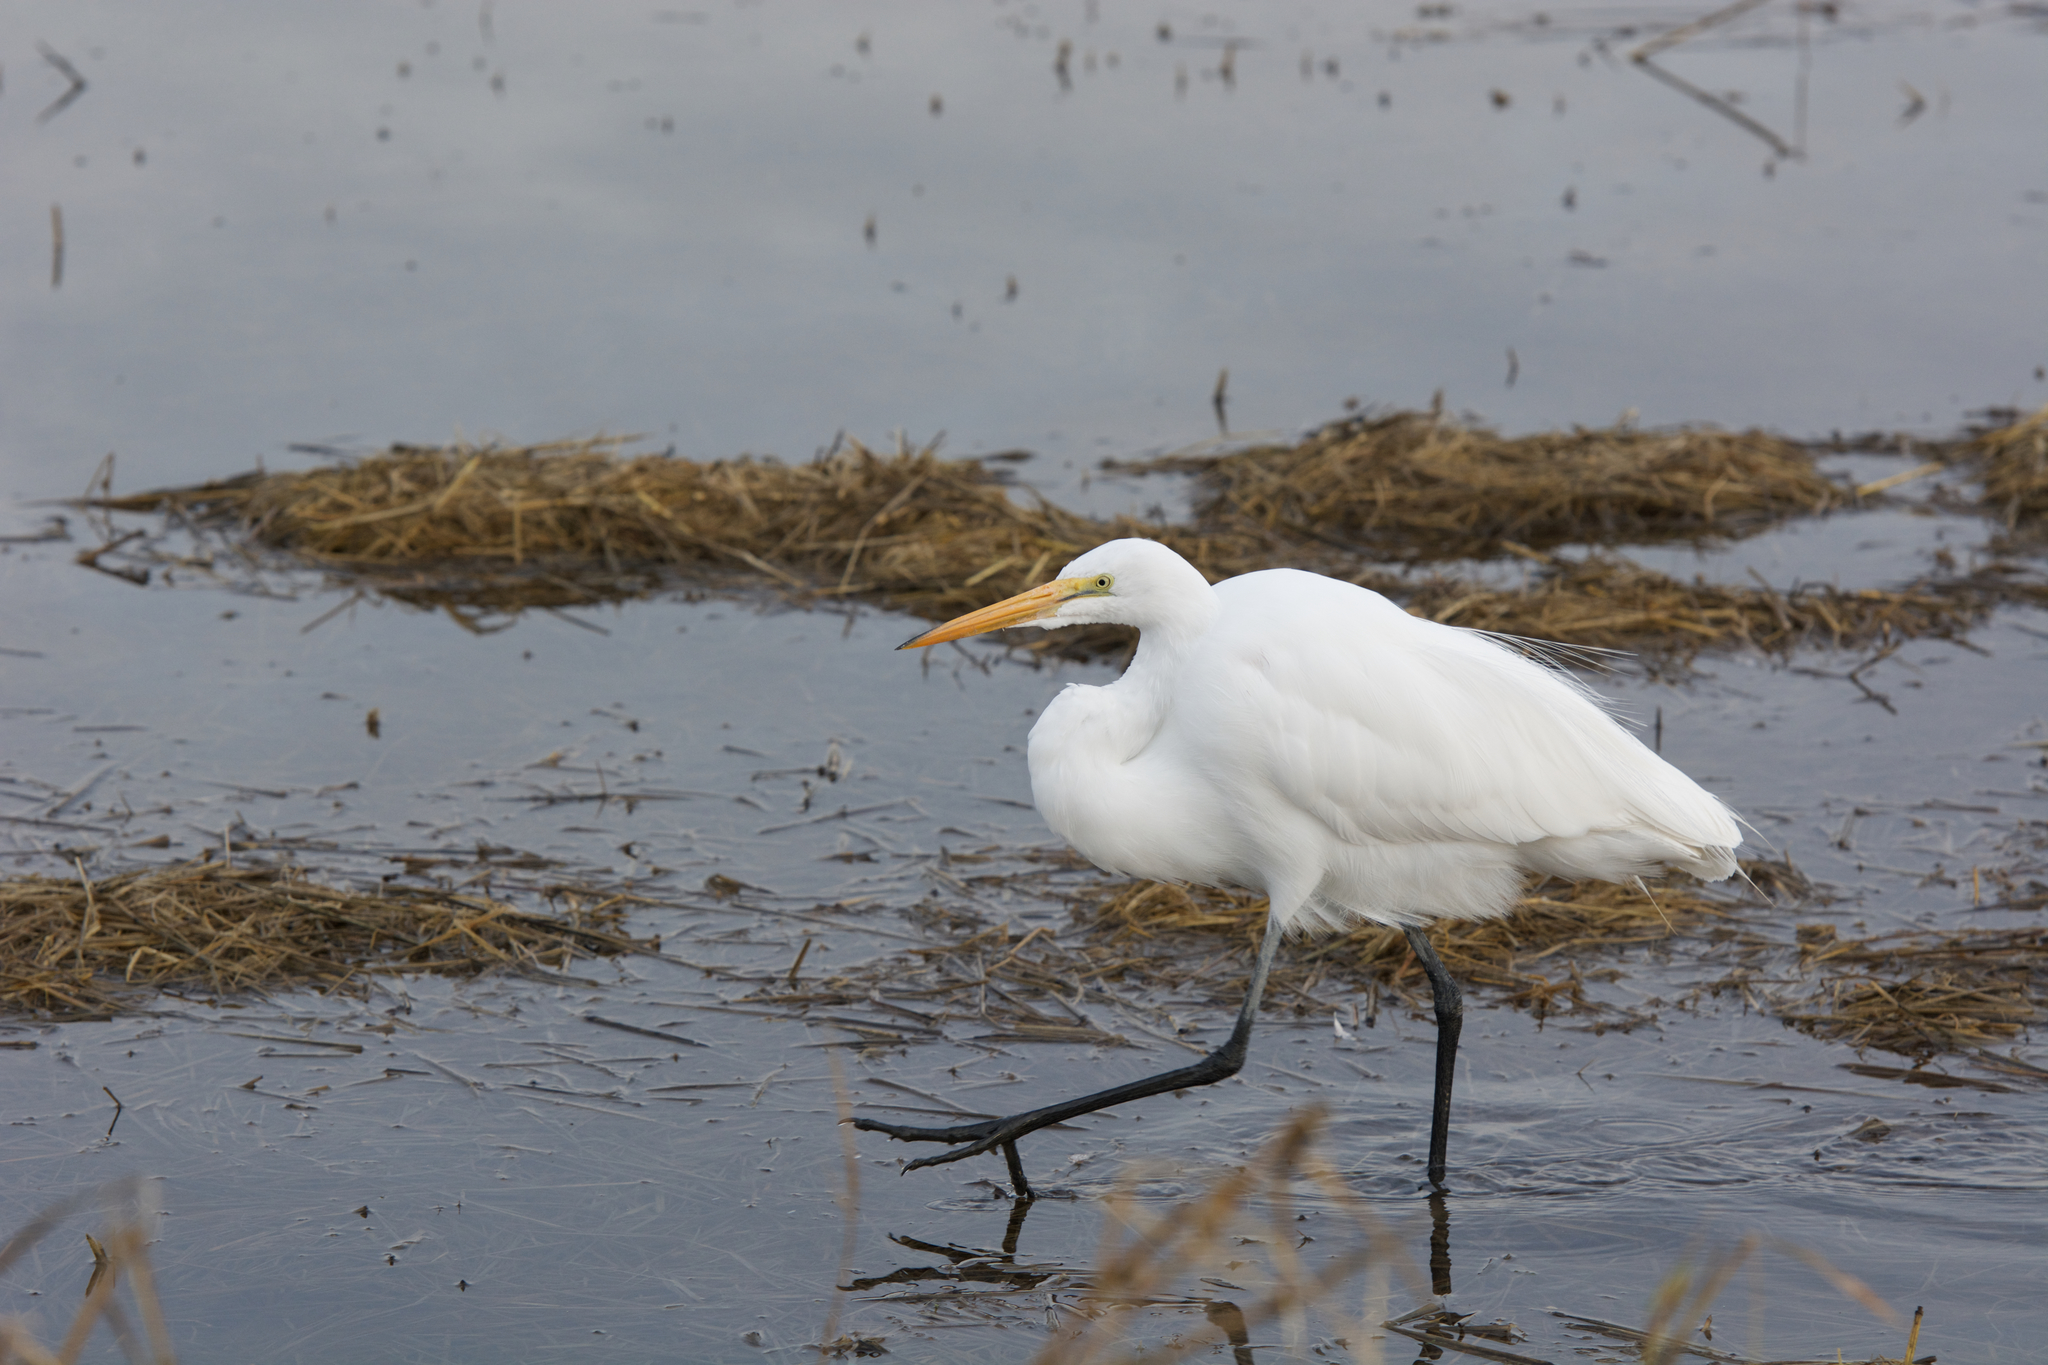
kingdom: Animalia
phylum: Chordata
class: Aves
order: Pelecaniformes
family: Ardeidae
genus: Ardea
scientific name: Ardea alba
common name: Great egret
